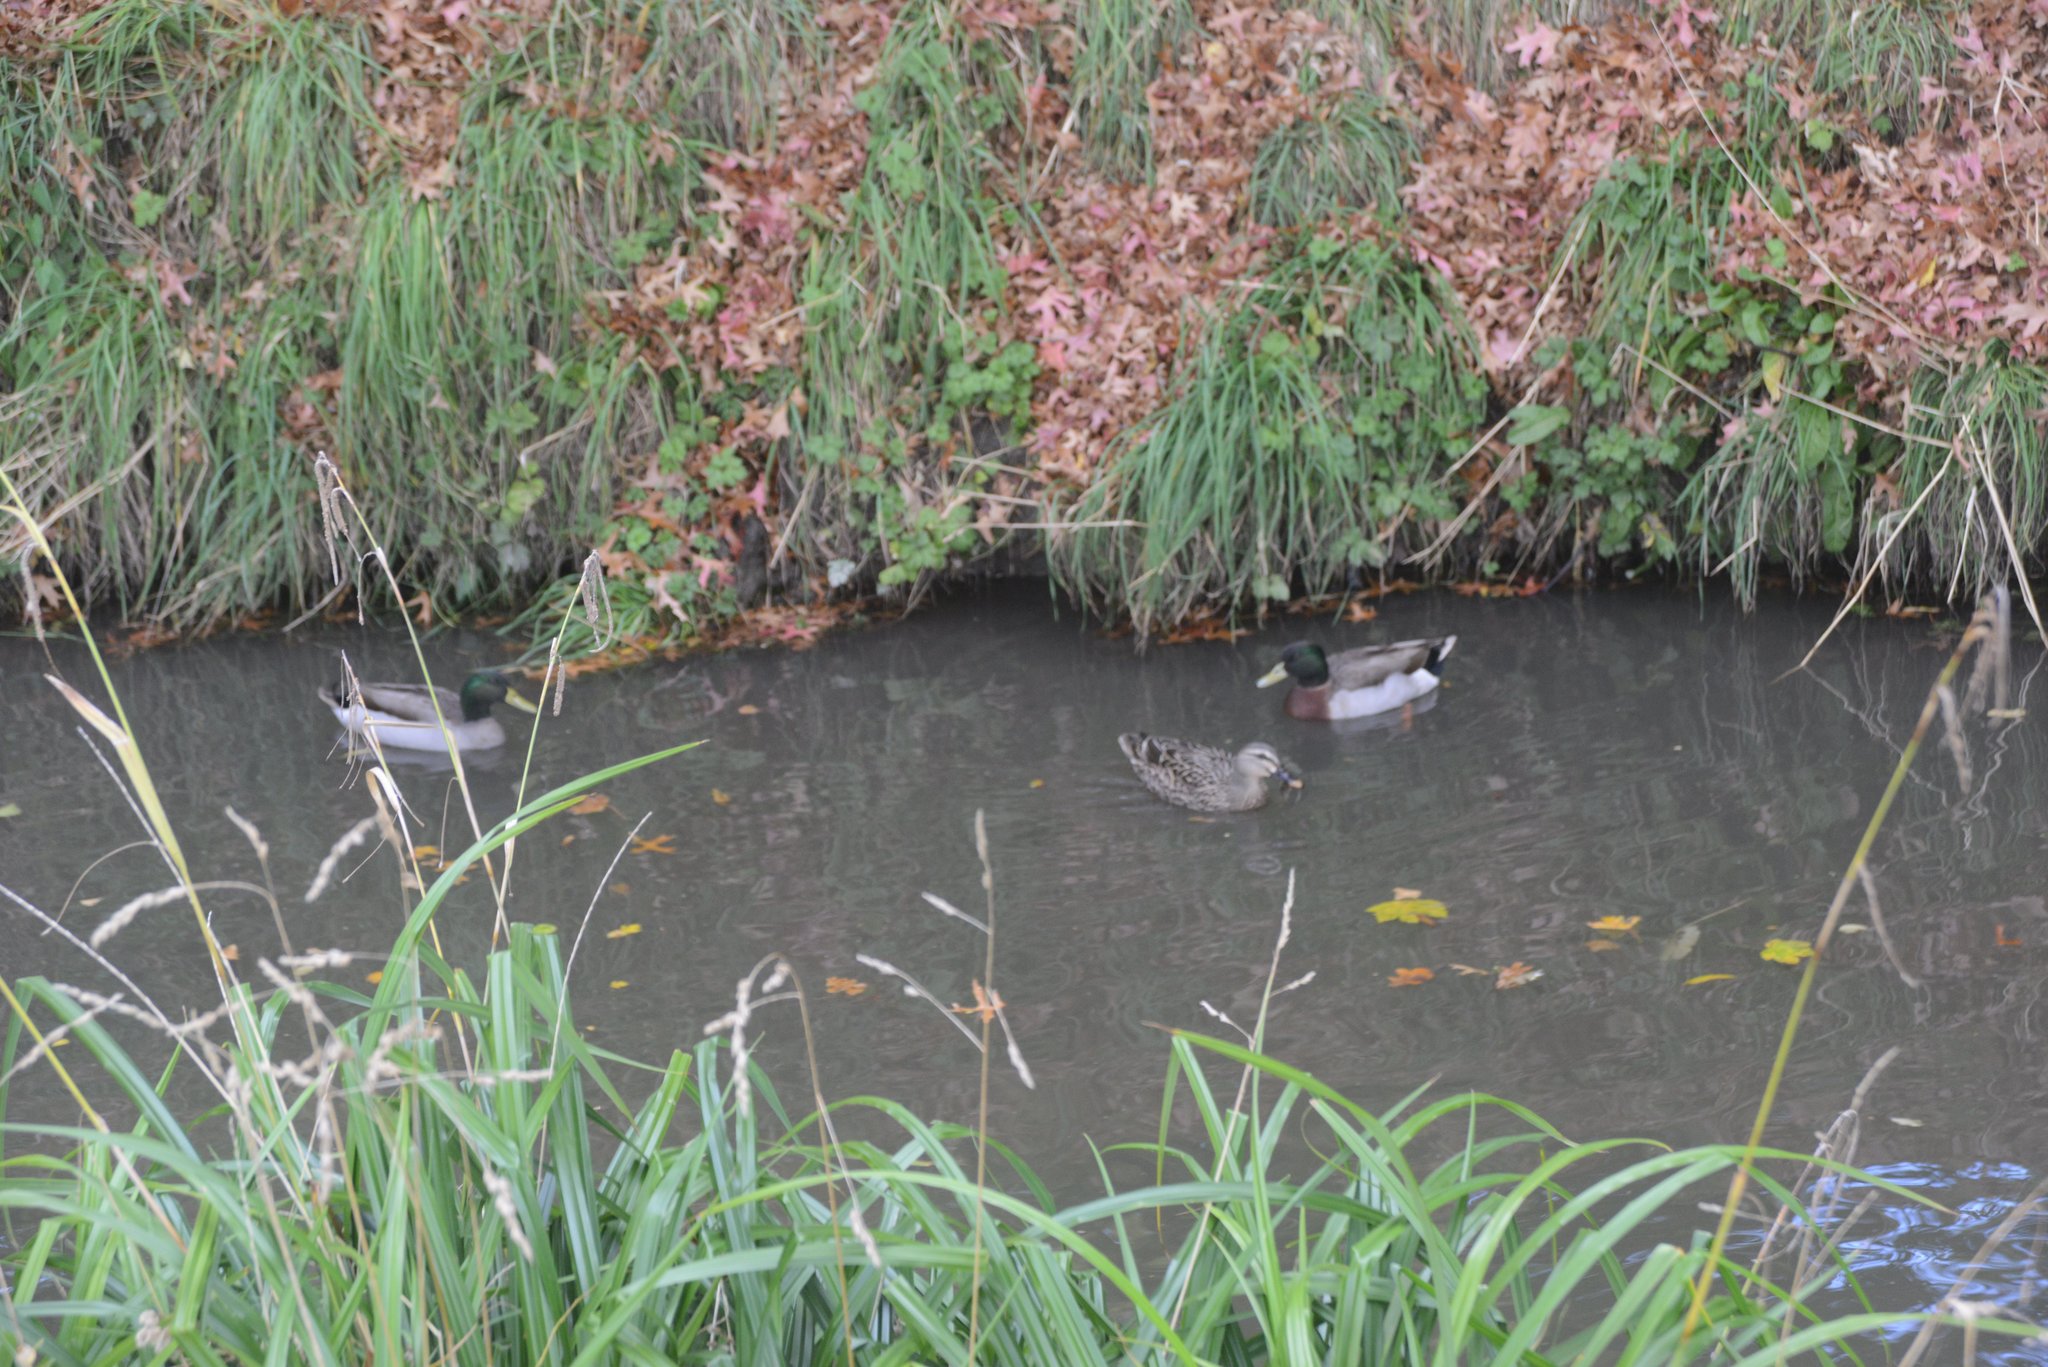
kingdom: Animalia
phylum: Chordata
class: Aves
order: Anseriformes
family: Anatidae
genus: Anas
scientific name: Anas platyrhynchos
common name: Mallard
